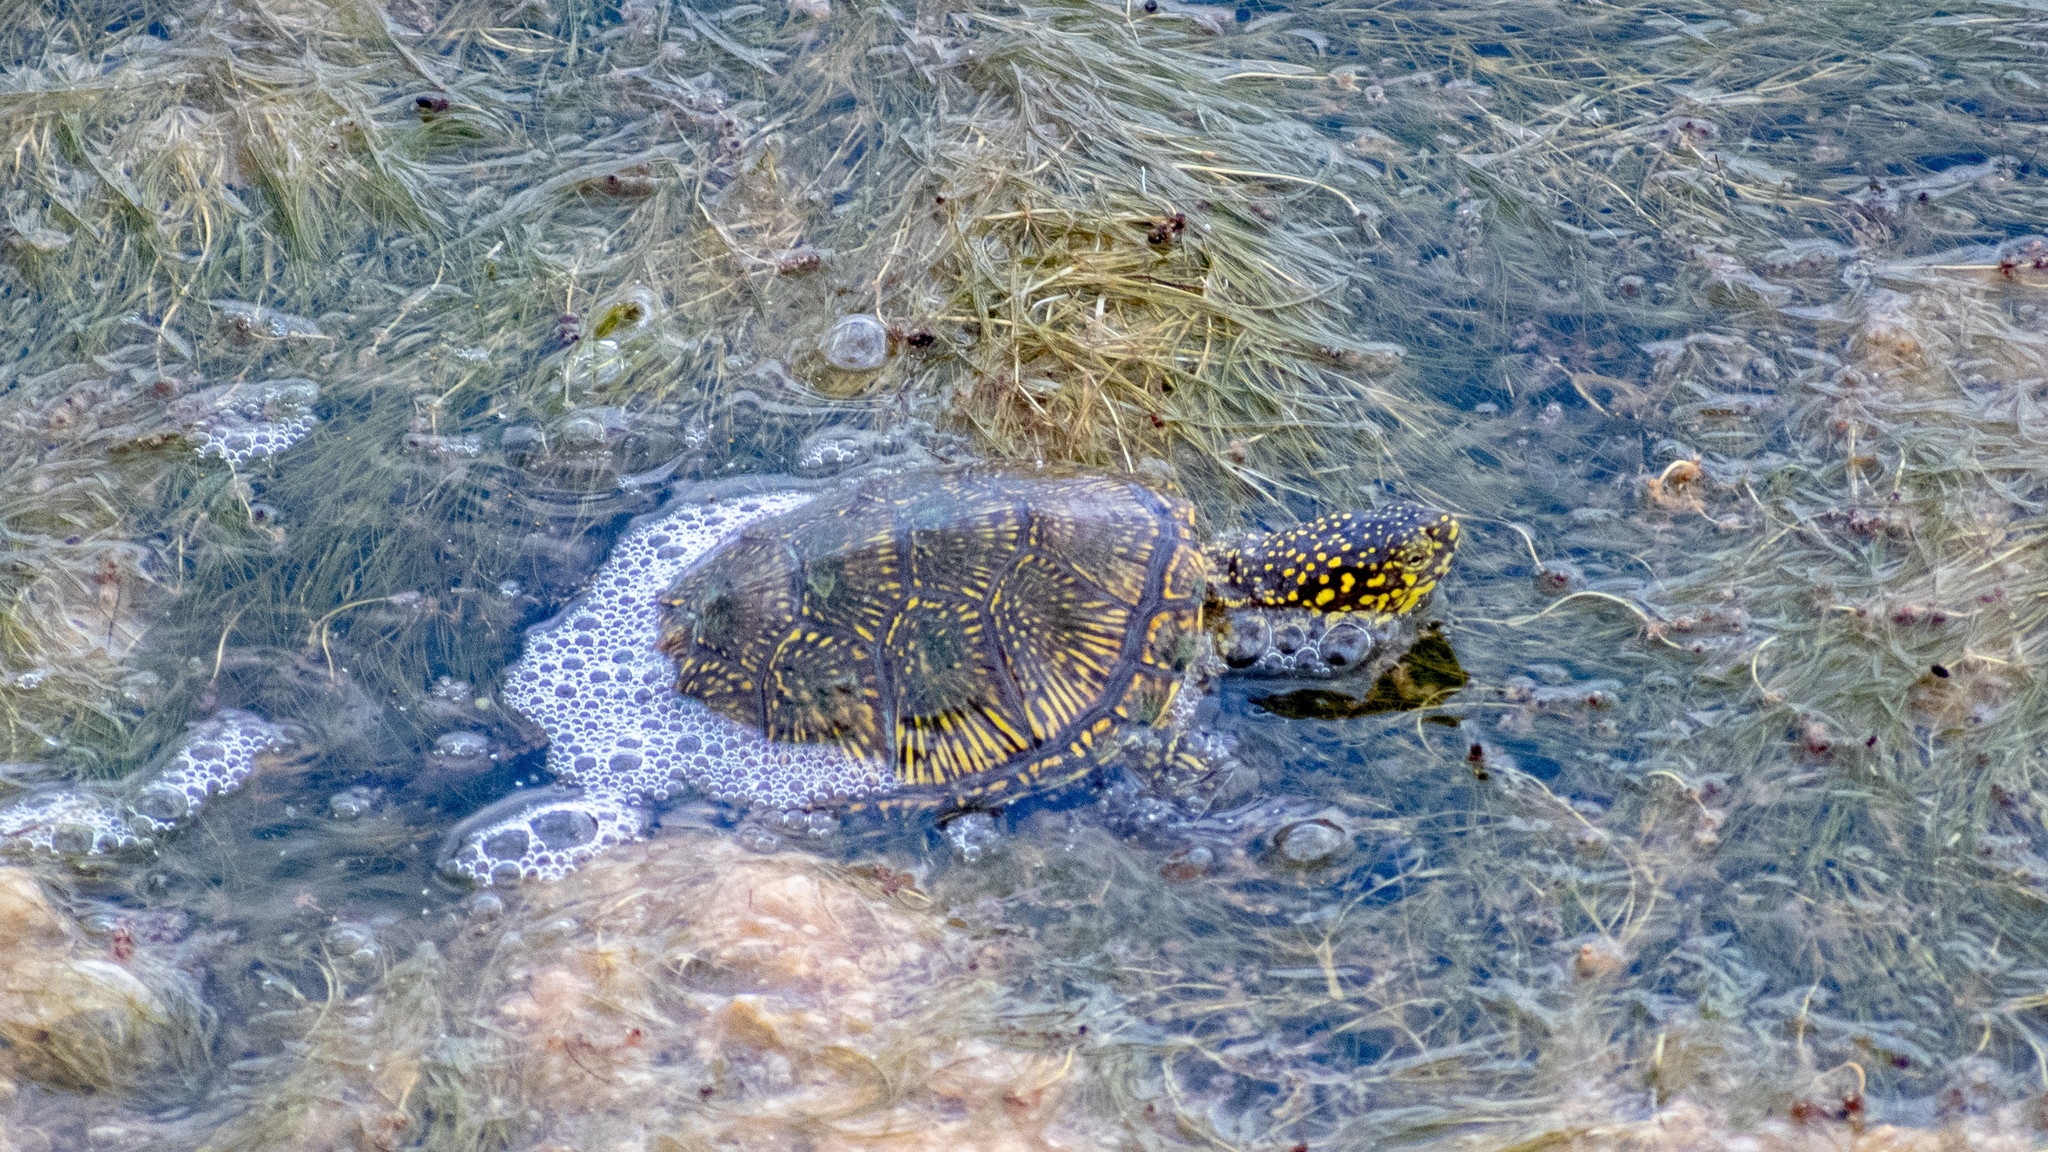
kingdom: Animalia
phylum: Chordata
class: Testudines
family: Emydidae
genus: Emys
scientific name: Emys orbicularis
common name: European pond turtle
